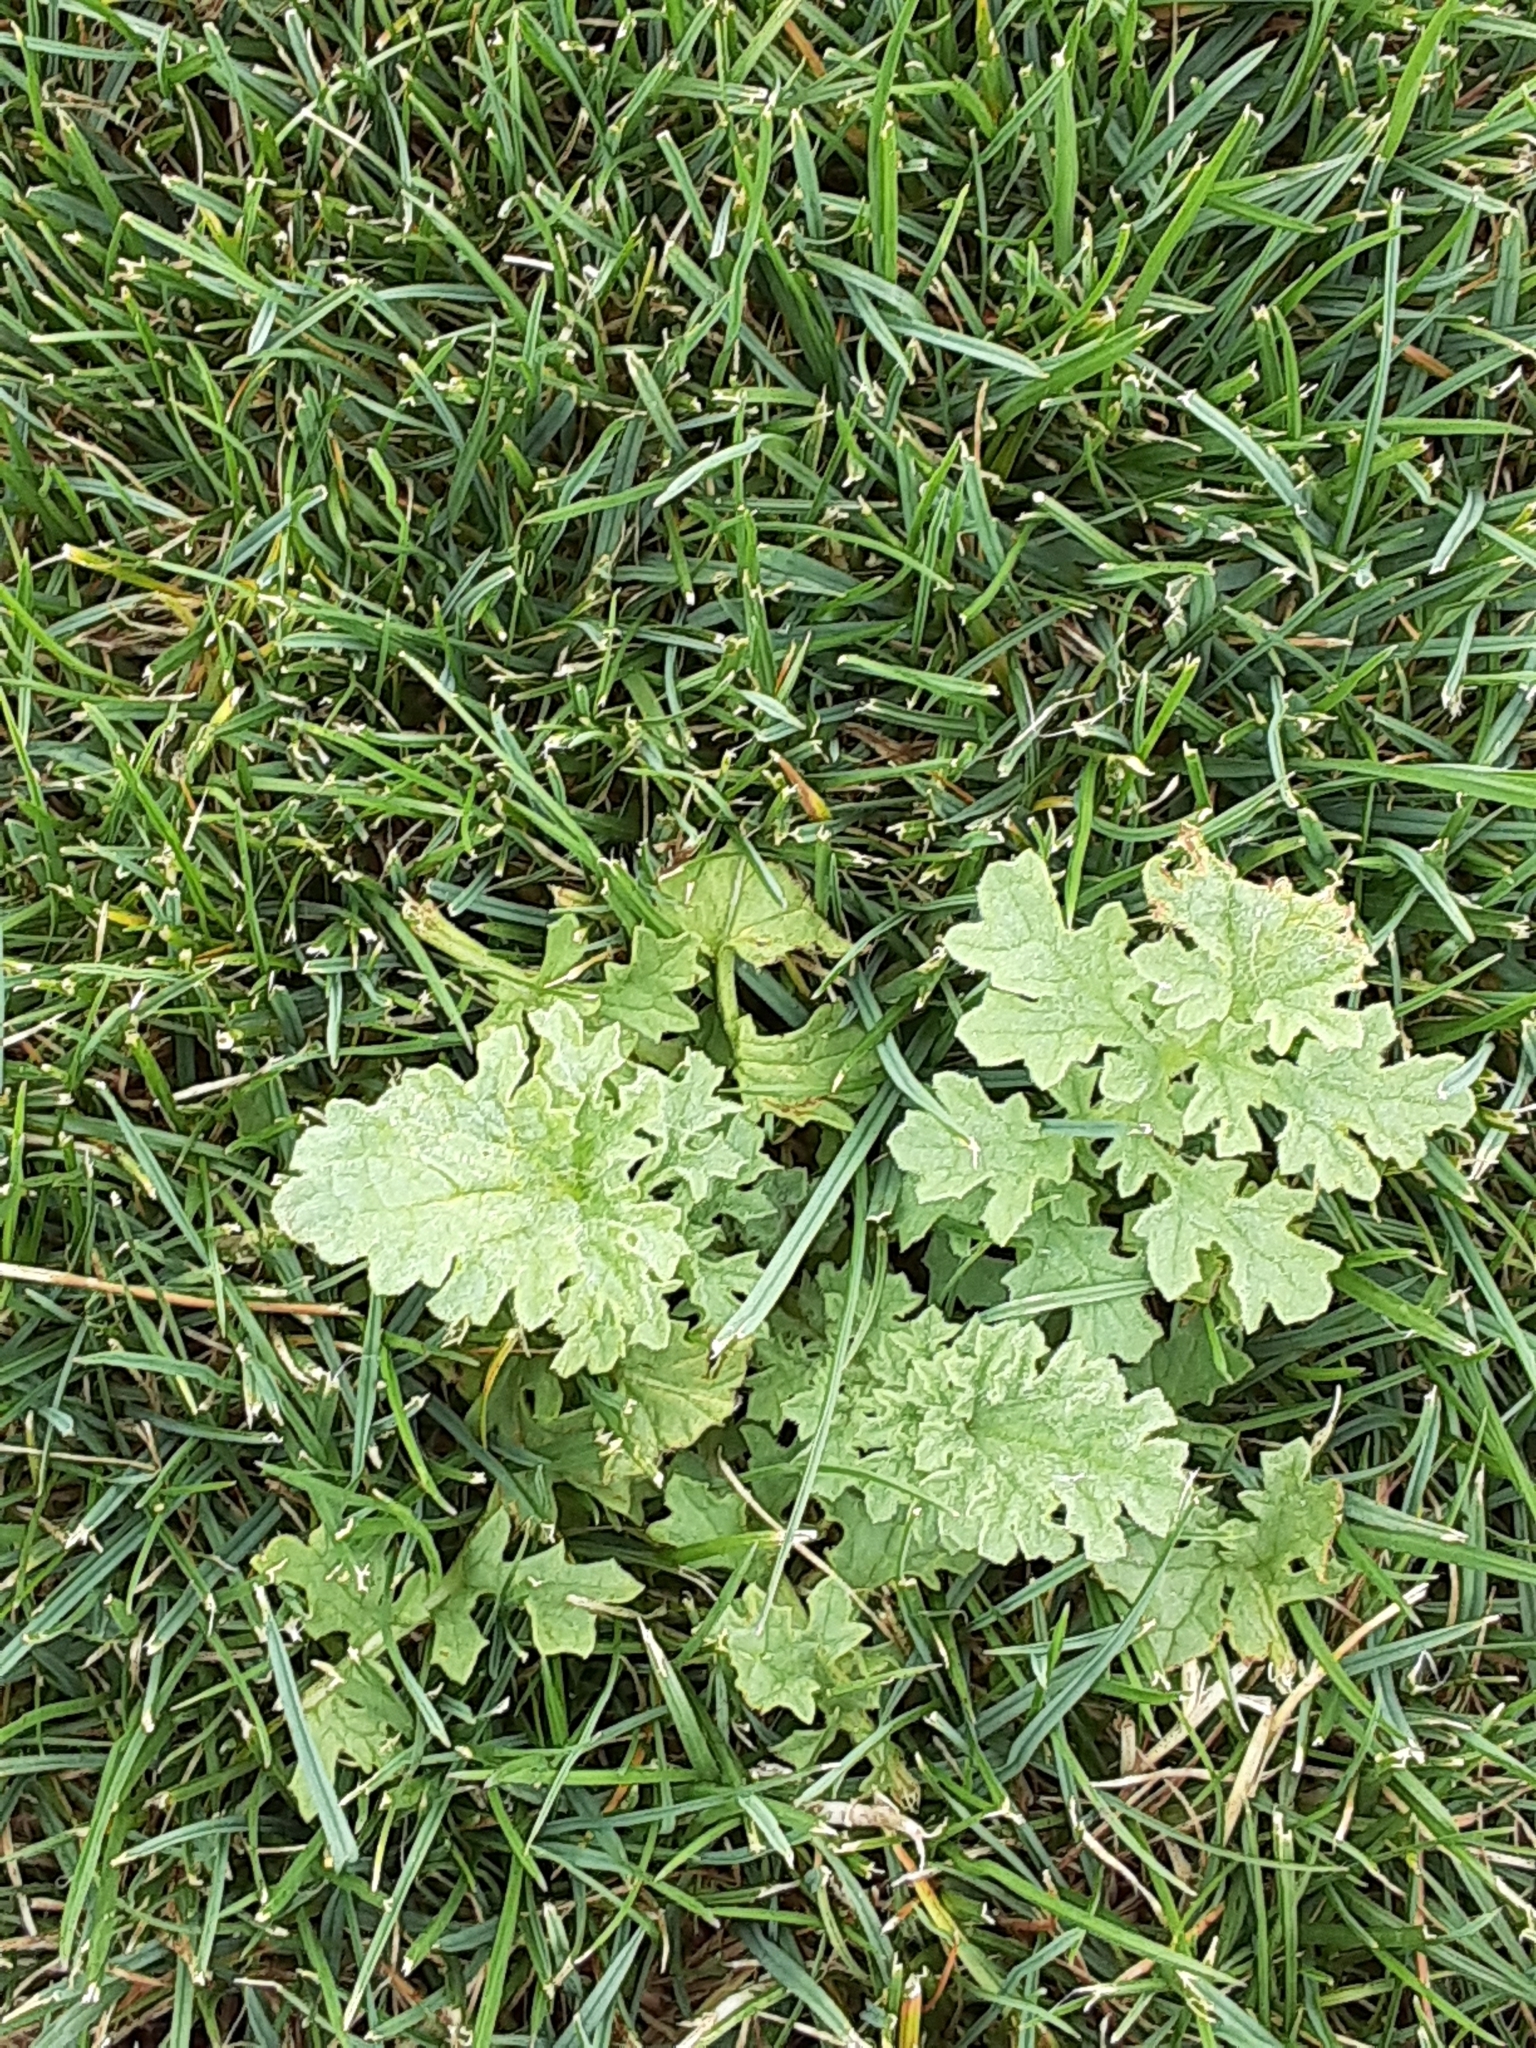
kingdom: Plantae
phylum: Tracheophyta
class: Magnoliopsida
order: Asterales
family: Asteraceae
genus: Jacobaea
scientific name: Jacobaea vulgaris
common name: Stinking willie
